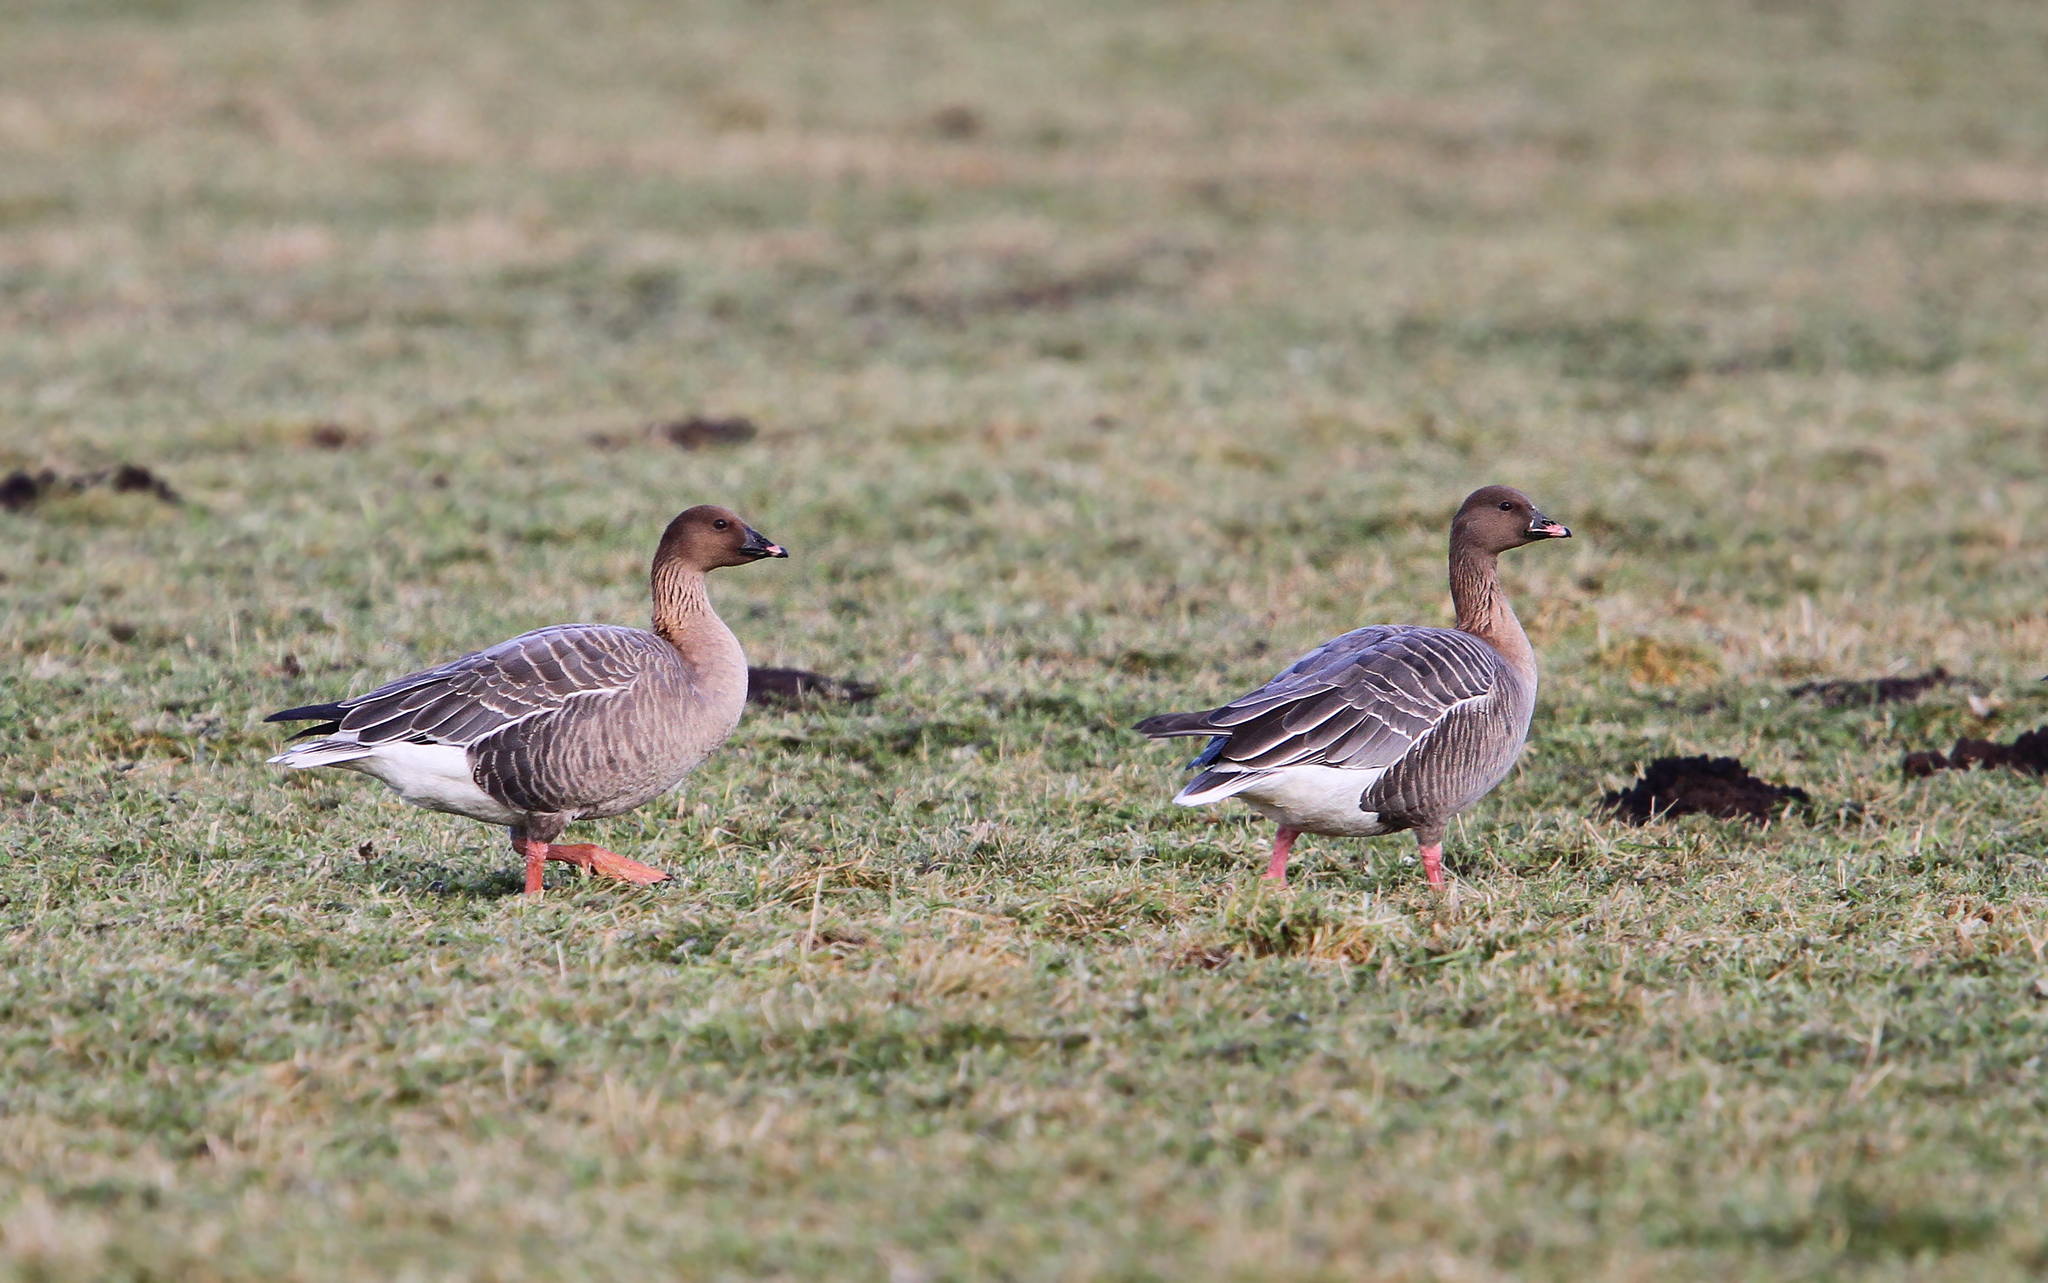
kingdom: Animalia
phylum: Chordata
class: Aves
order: Anseriformes
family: Anatidae
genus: Anser
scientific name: Anser brachyrhynchus
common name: Pink-footed goose
